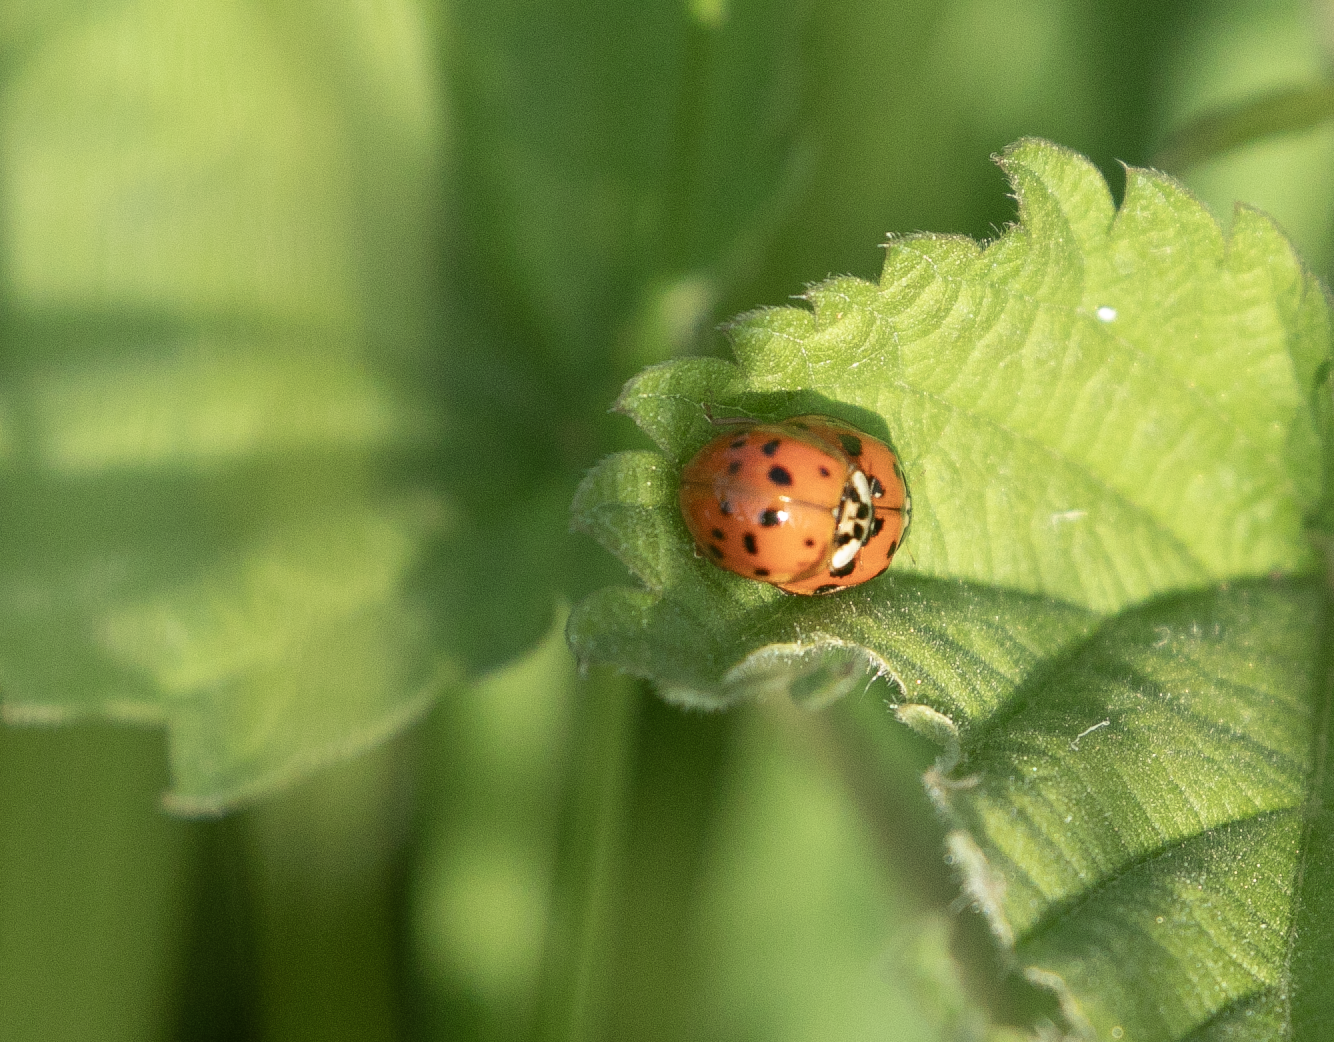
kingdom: Animalia
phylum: Arthropoda
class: Insecta
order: Coleoptera
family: Coccinellidae
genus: Harmonia
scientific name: Harmonia axyridis
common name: Harlequin ladybird
